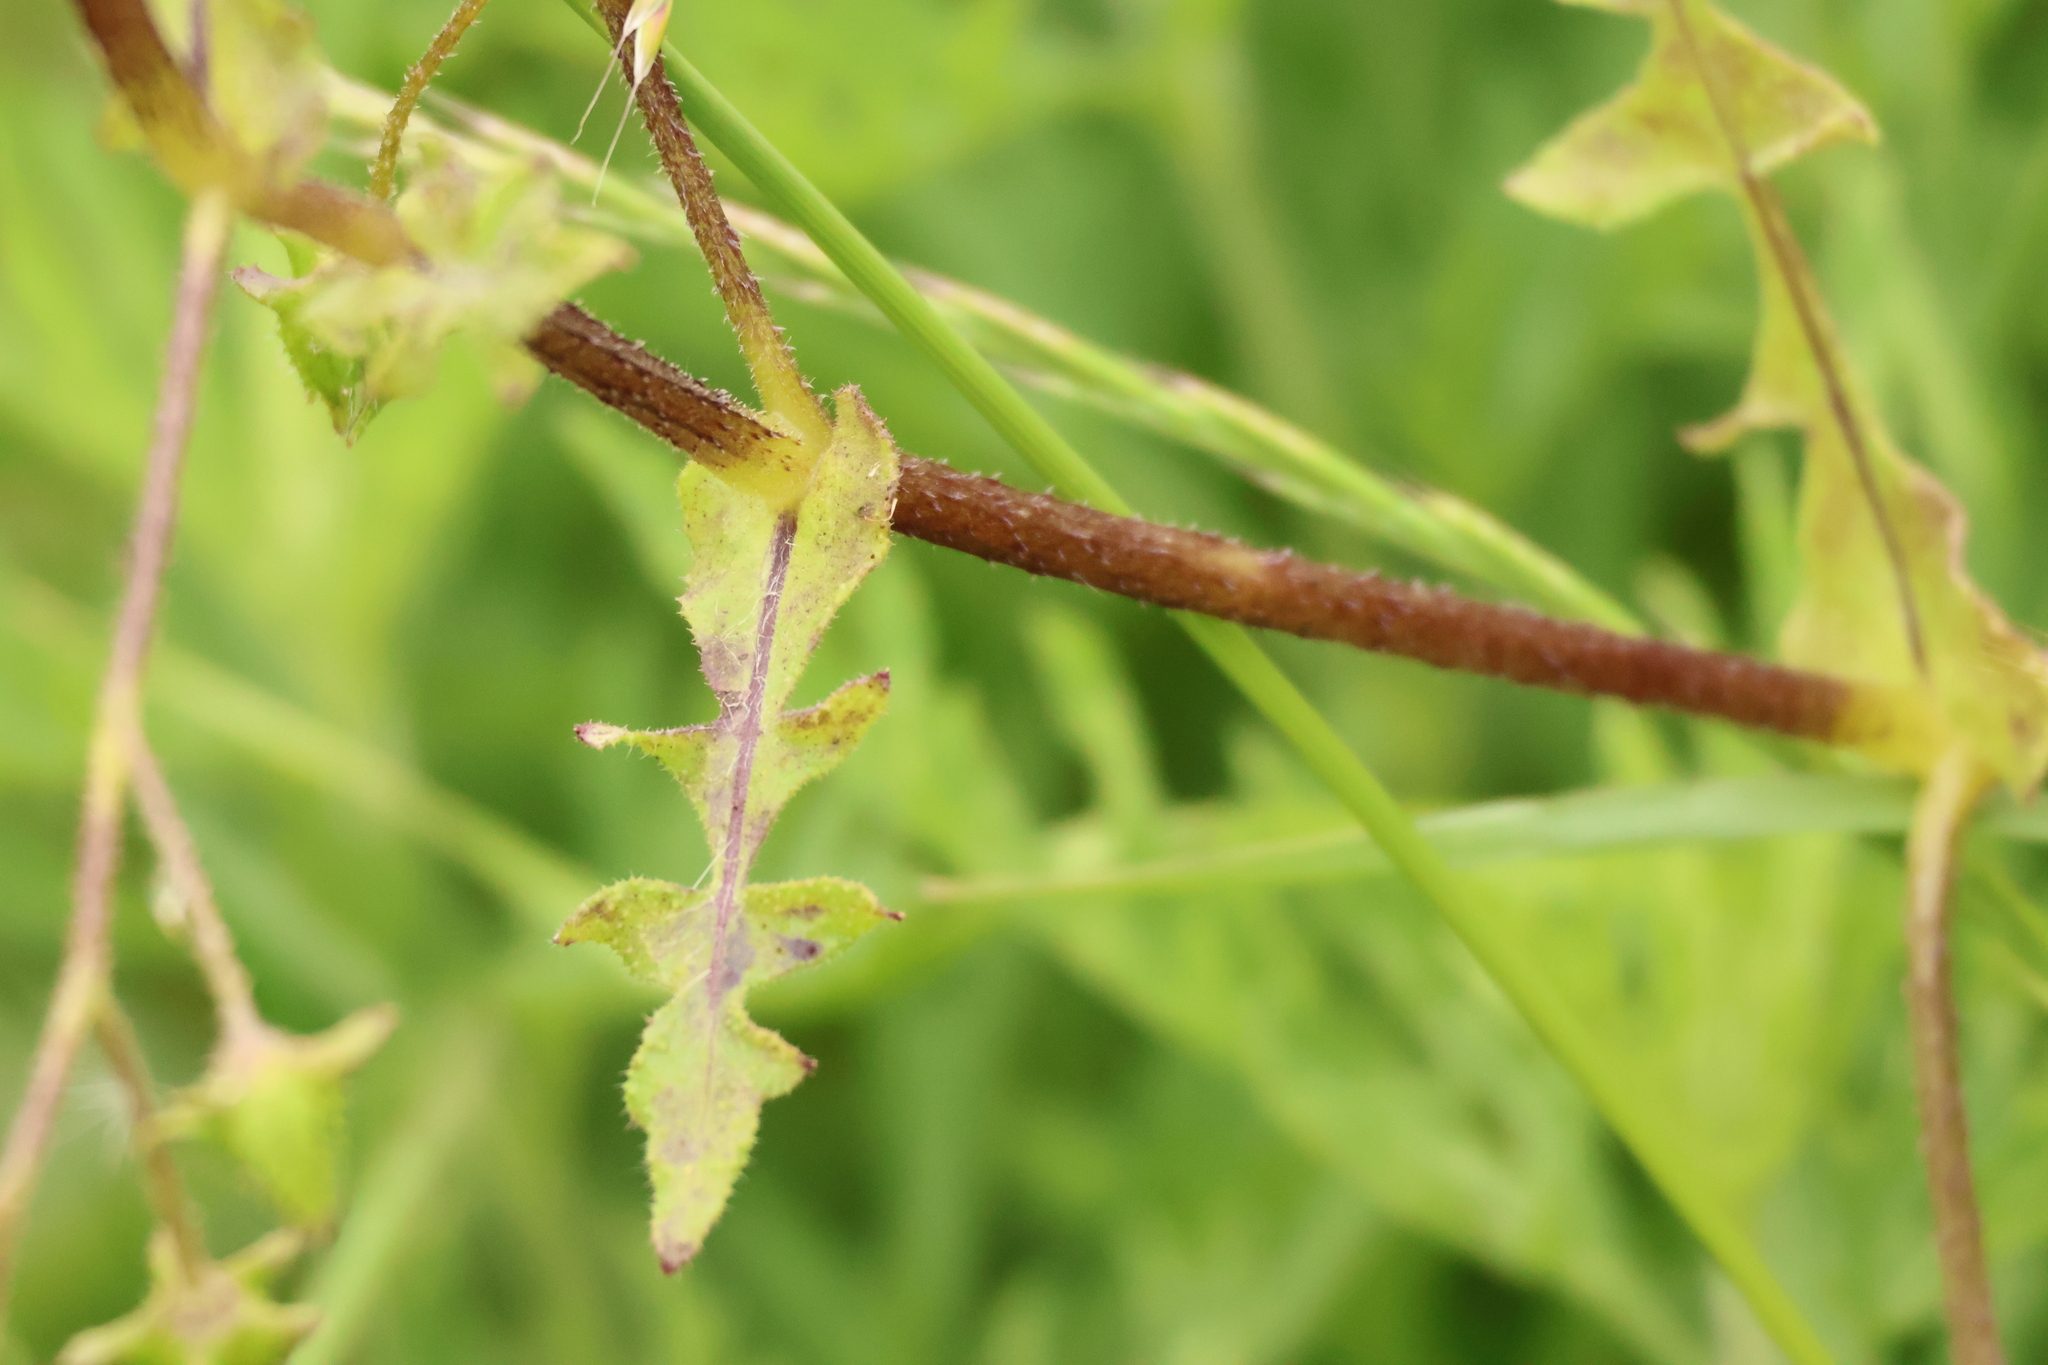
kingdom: Plantae
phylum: Tracheophyta
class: Magnoliopsida
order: Boraginales
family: Hydrophyllaceae
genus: Pholistoma
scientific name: Pholistoma auritum
